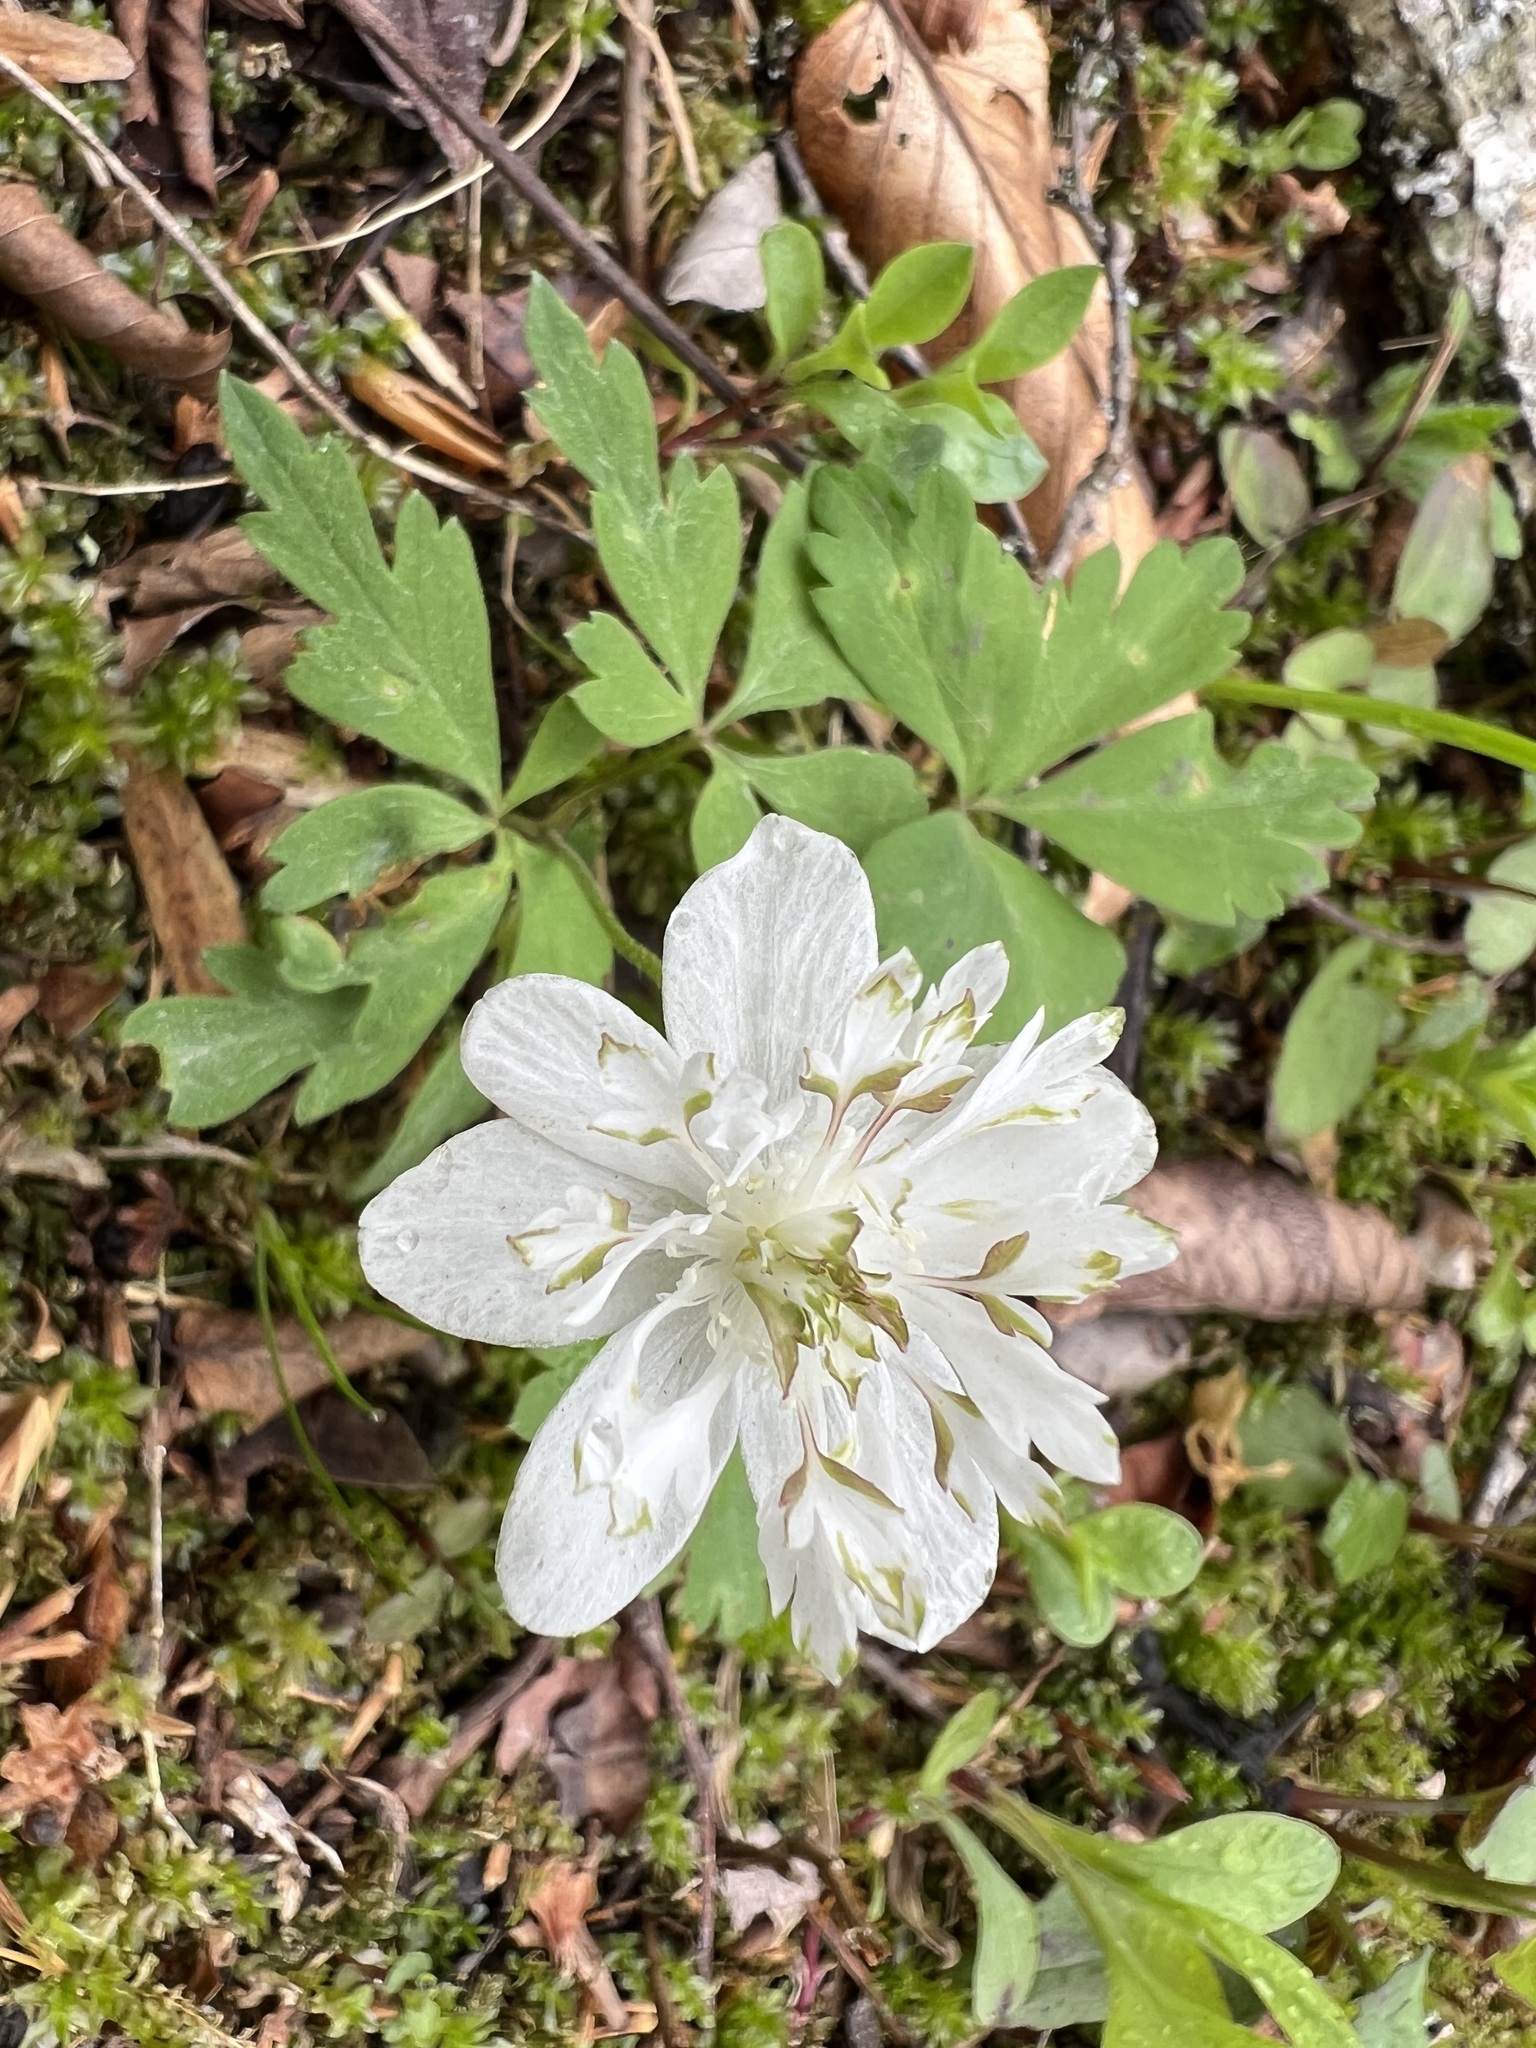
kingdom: Plantae
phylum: Tracheophyta
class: Magnoliopsida
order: Ranunculales
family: Ranunculaceae
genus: Anemone
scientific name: Anemone quinquefolia
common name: Wood anemone
